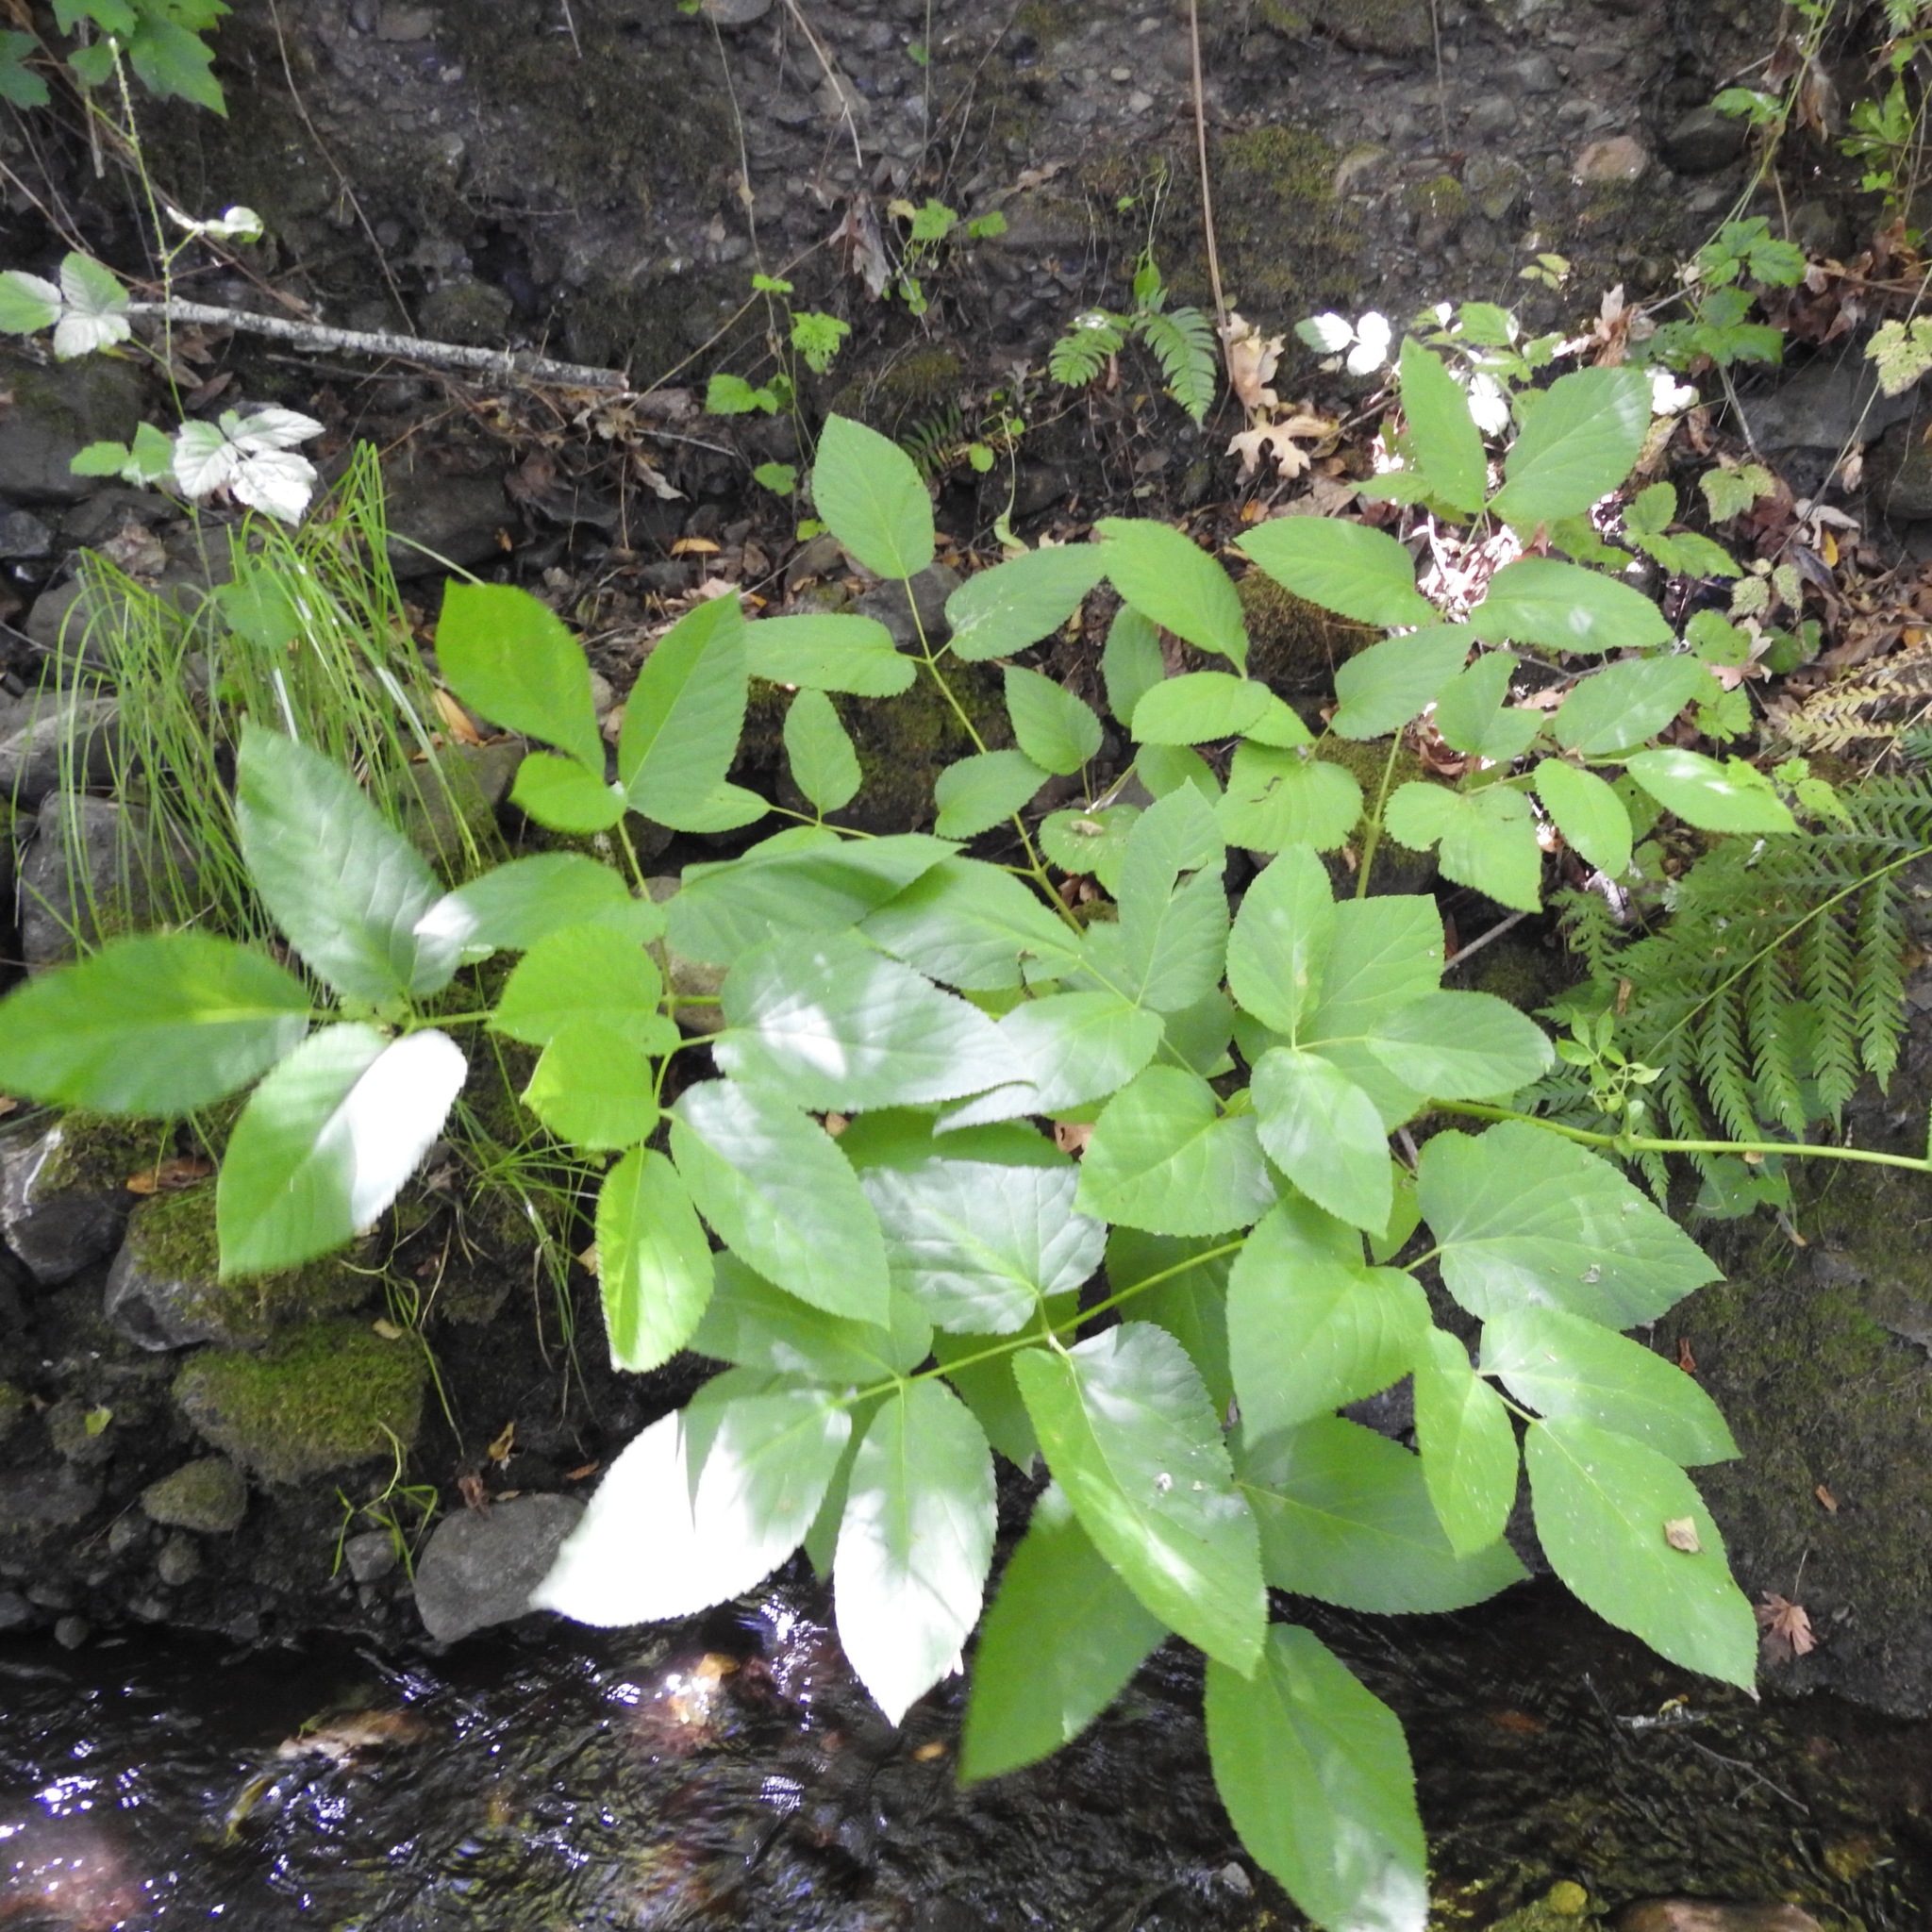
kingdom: Plantae
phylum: Tracheophyta
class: Magnoliopsida
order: Apiales
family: Araliaceae
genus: Aralia
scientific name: Aralia californica
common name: California-ginseng
